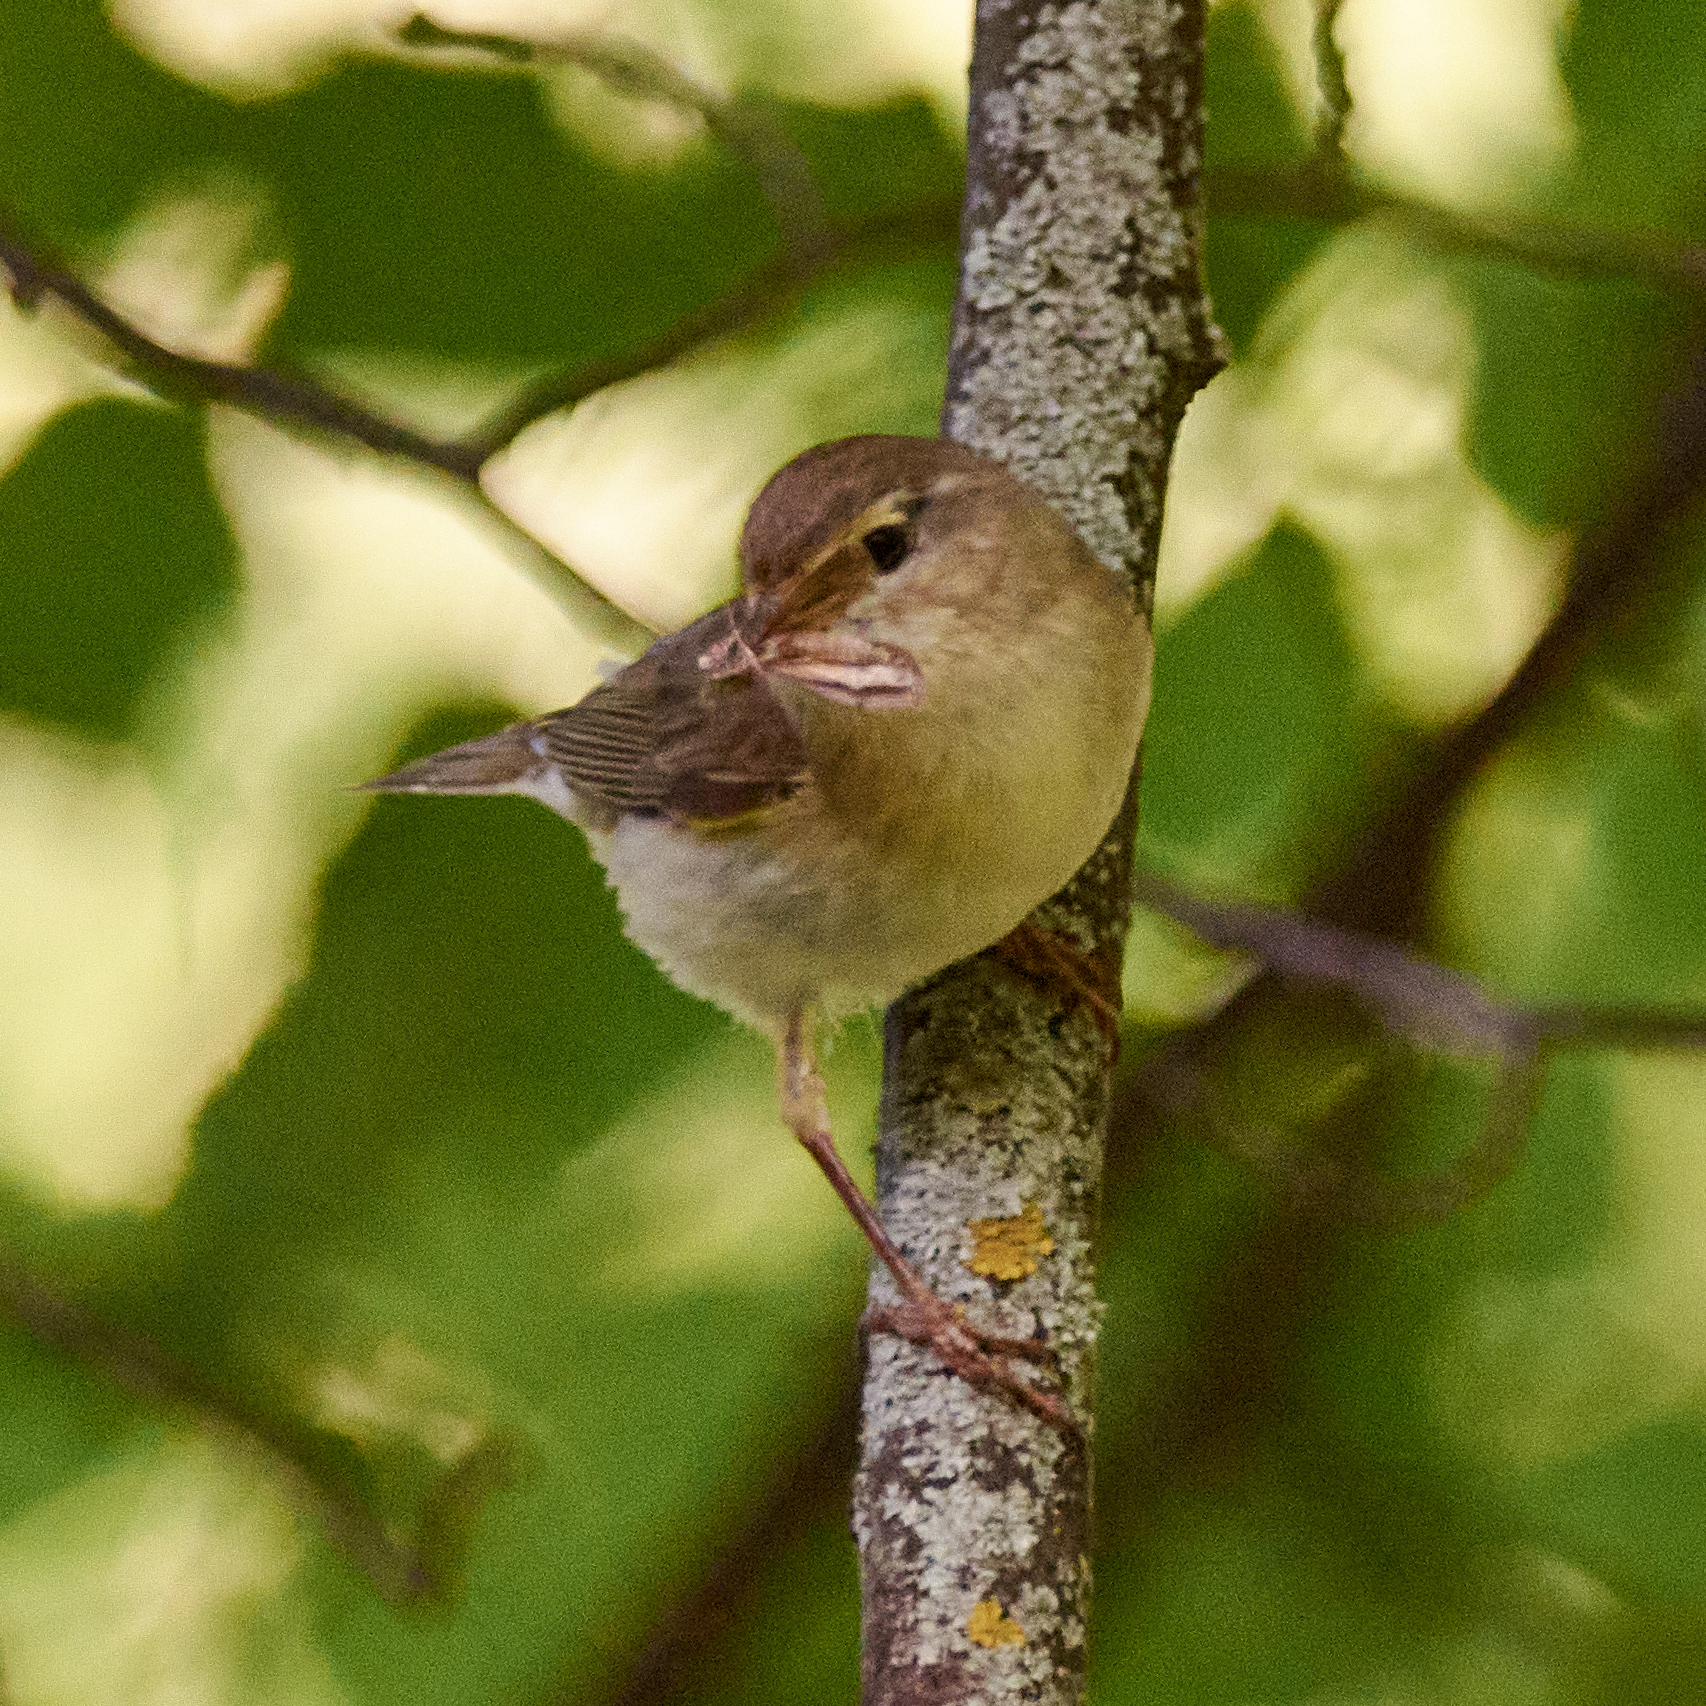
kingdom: Animalia
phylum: Chordata
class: Aves
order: Passeriformes
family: Phylloscopidae
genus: Phylloscopus
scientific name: Phylloscopus trochilus
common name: Willow warbler
